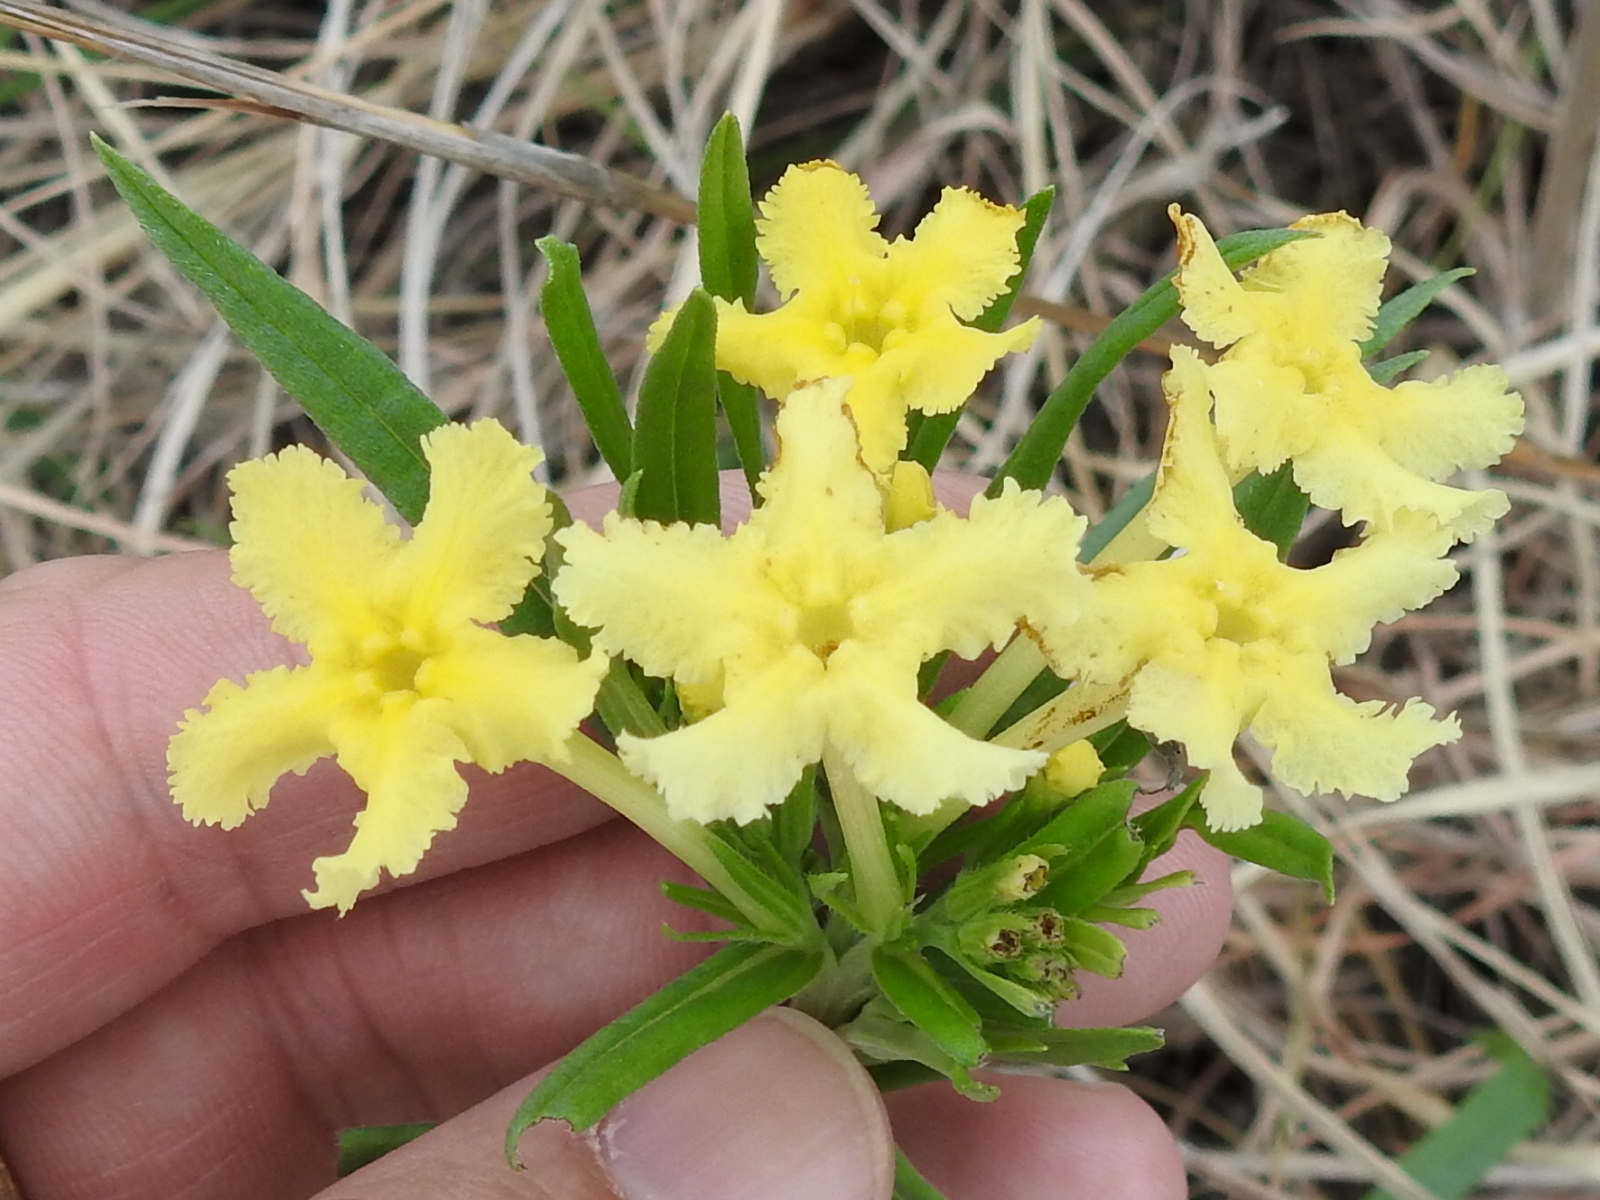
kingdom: Plantae
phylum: Tracheophyta
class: Magnoliopsida
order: Boraginales
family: Boraginaceae
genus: Lithospermum
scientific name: Lithospermum incisum
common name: Fringed gromwell
